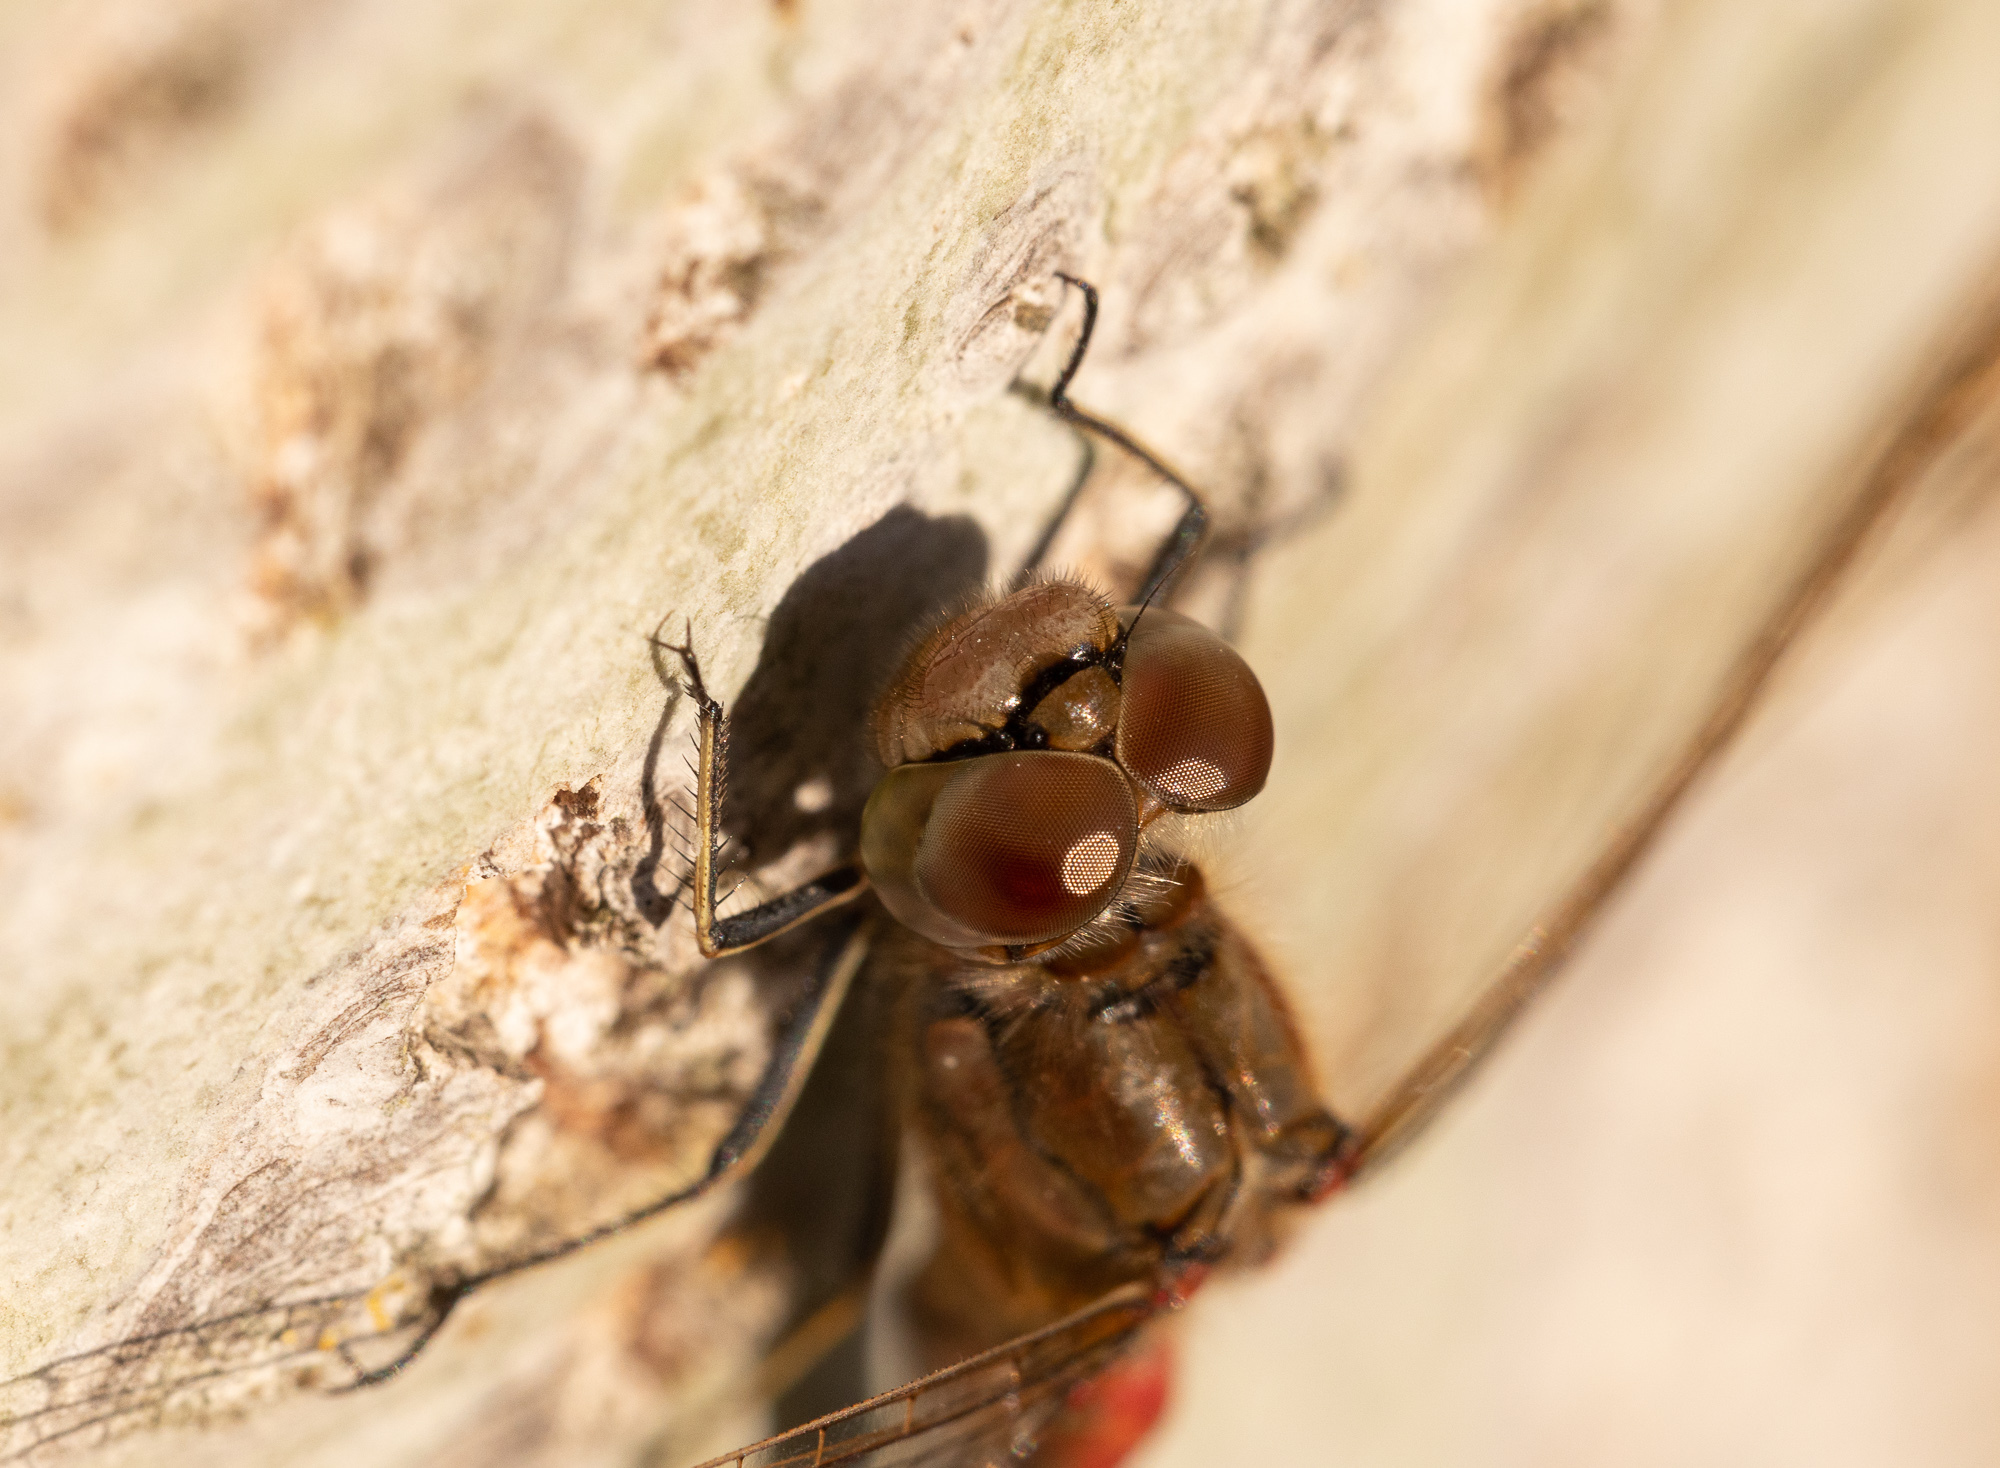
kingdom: Animalia
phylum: Arthropoda
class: Insecta
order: Odonata
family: Libellulidae
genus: Sympetrum
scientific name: Sympetrum vulgatum
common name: Vagrant darter
